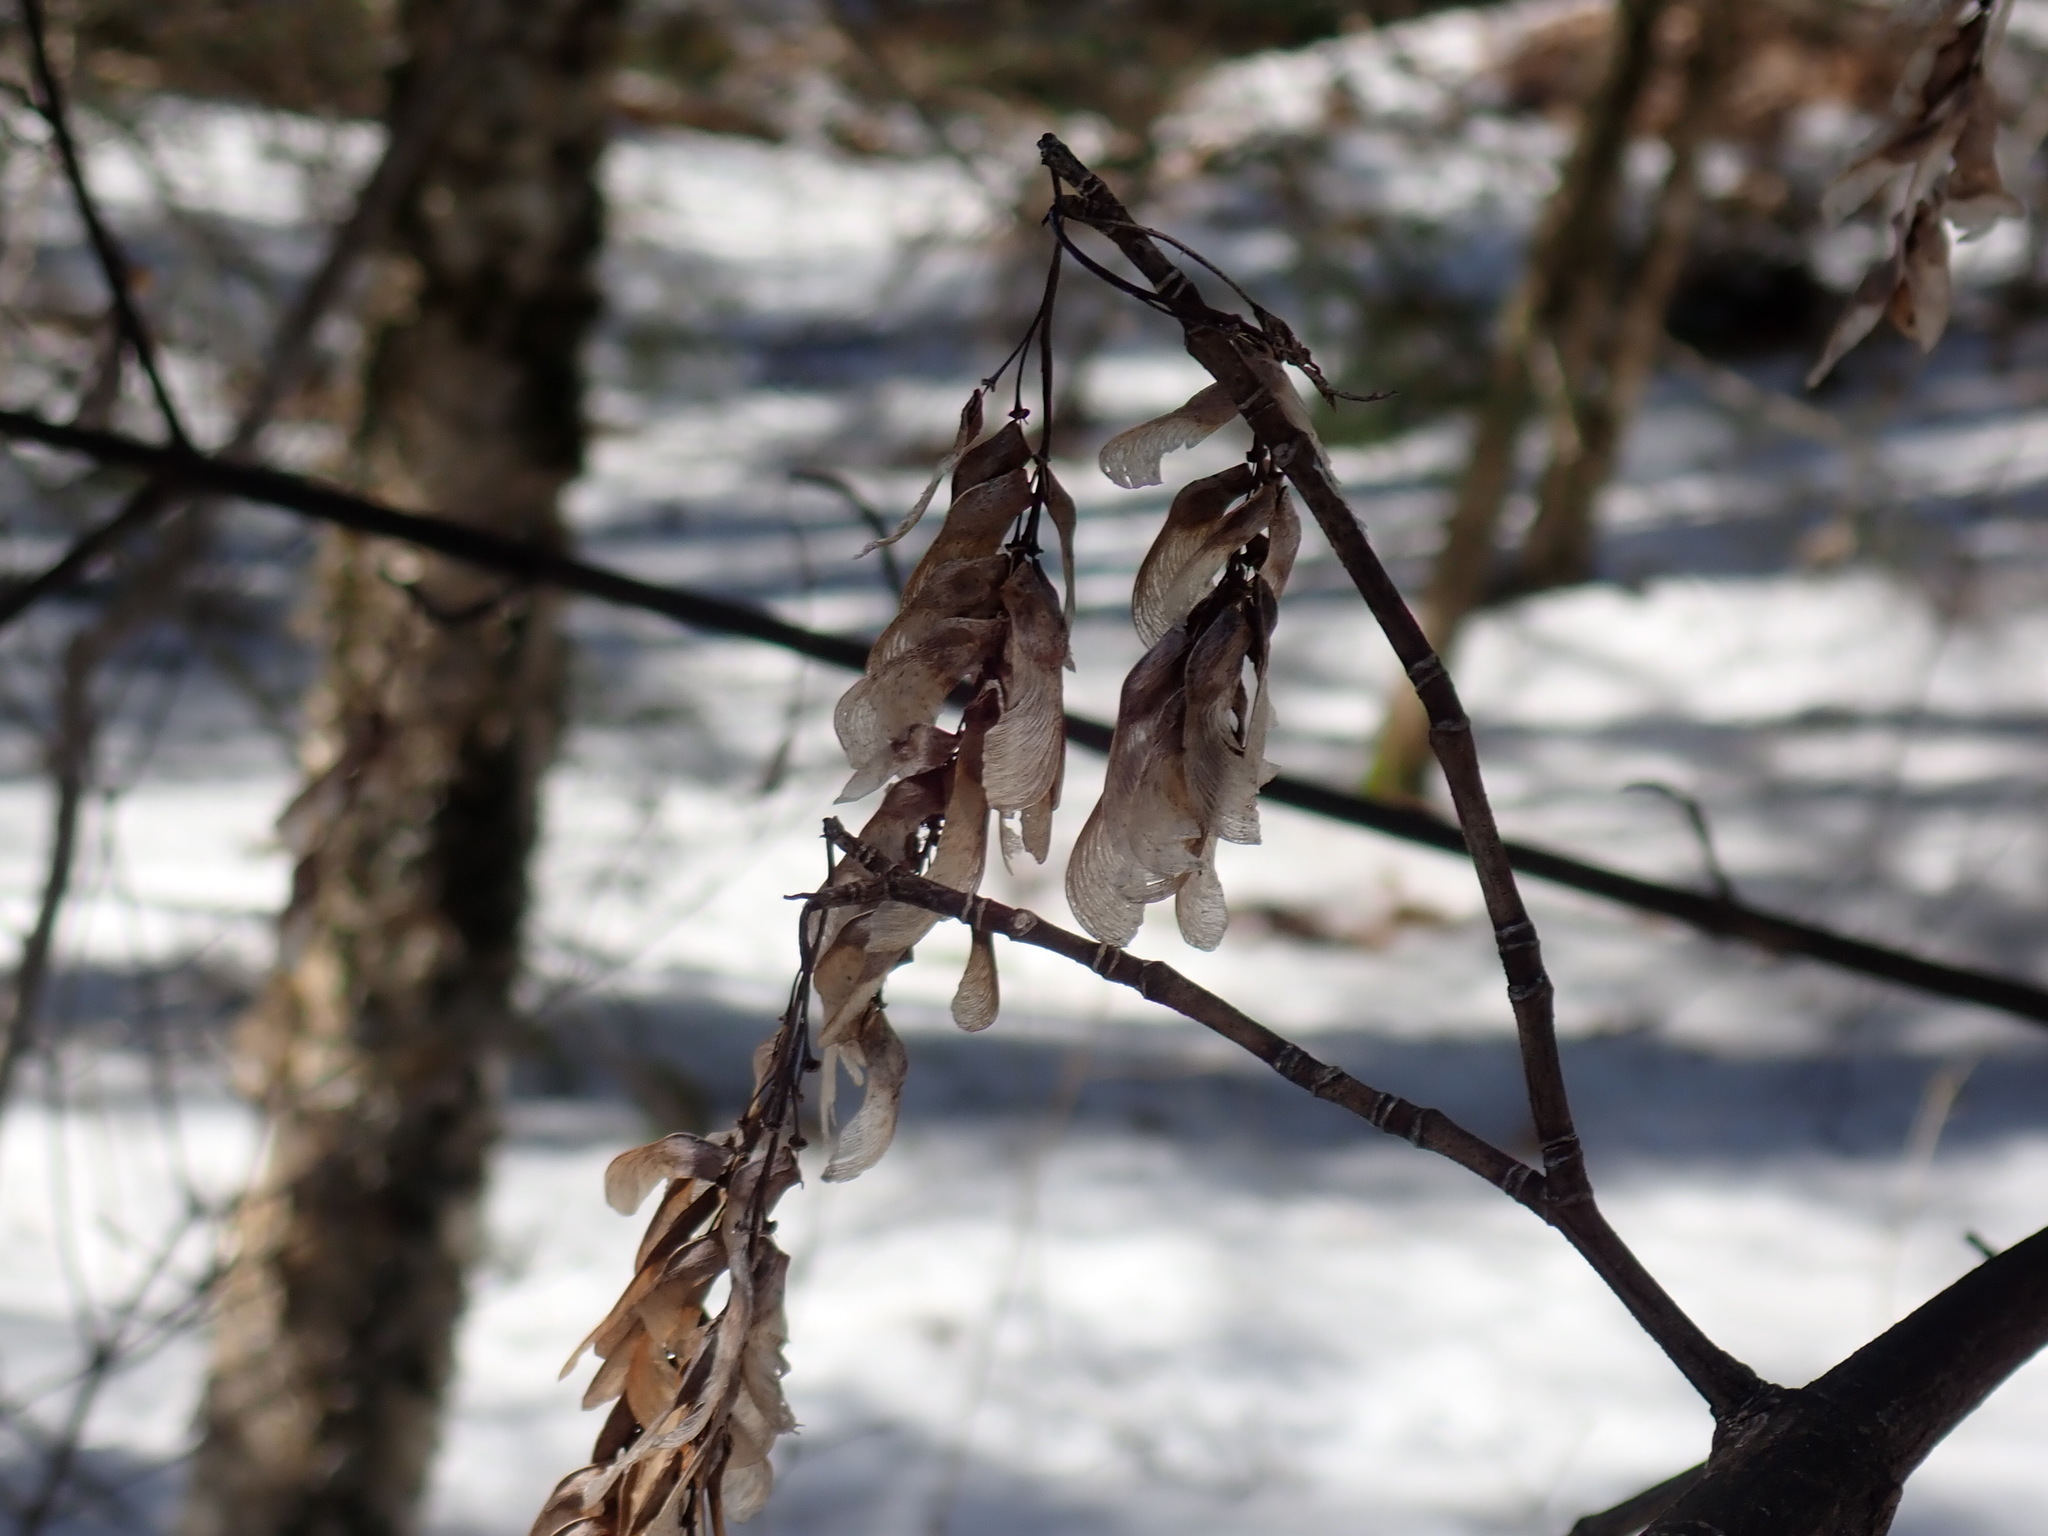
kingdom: Plantae
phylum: Tracheophyta
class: Magnoliopsida
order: Sapindales
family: Sapindaceae
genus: Acer
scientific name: Acer pensylvanicum
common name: Moosewood
